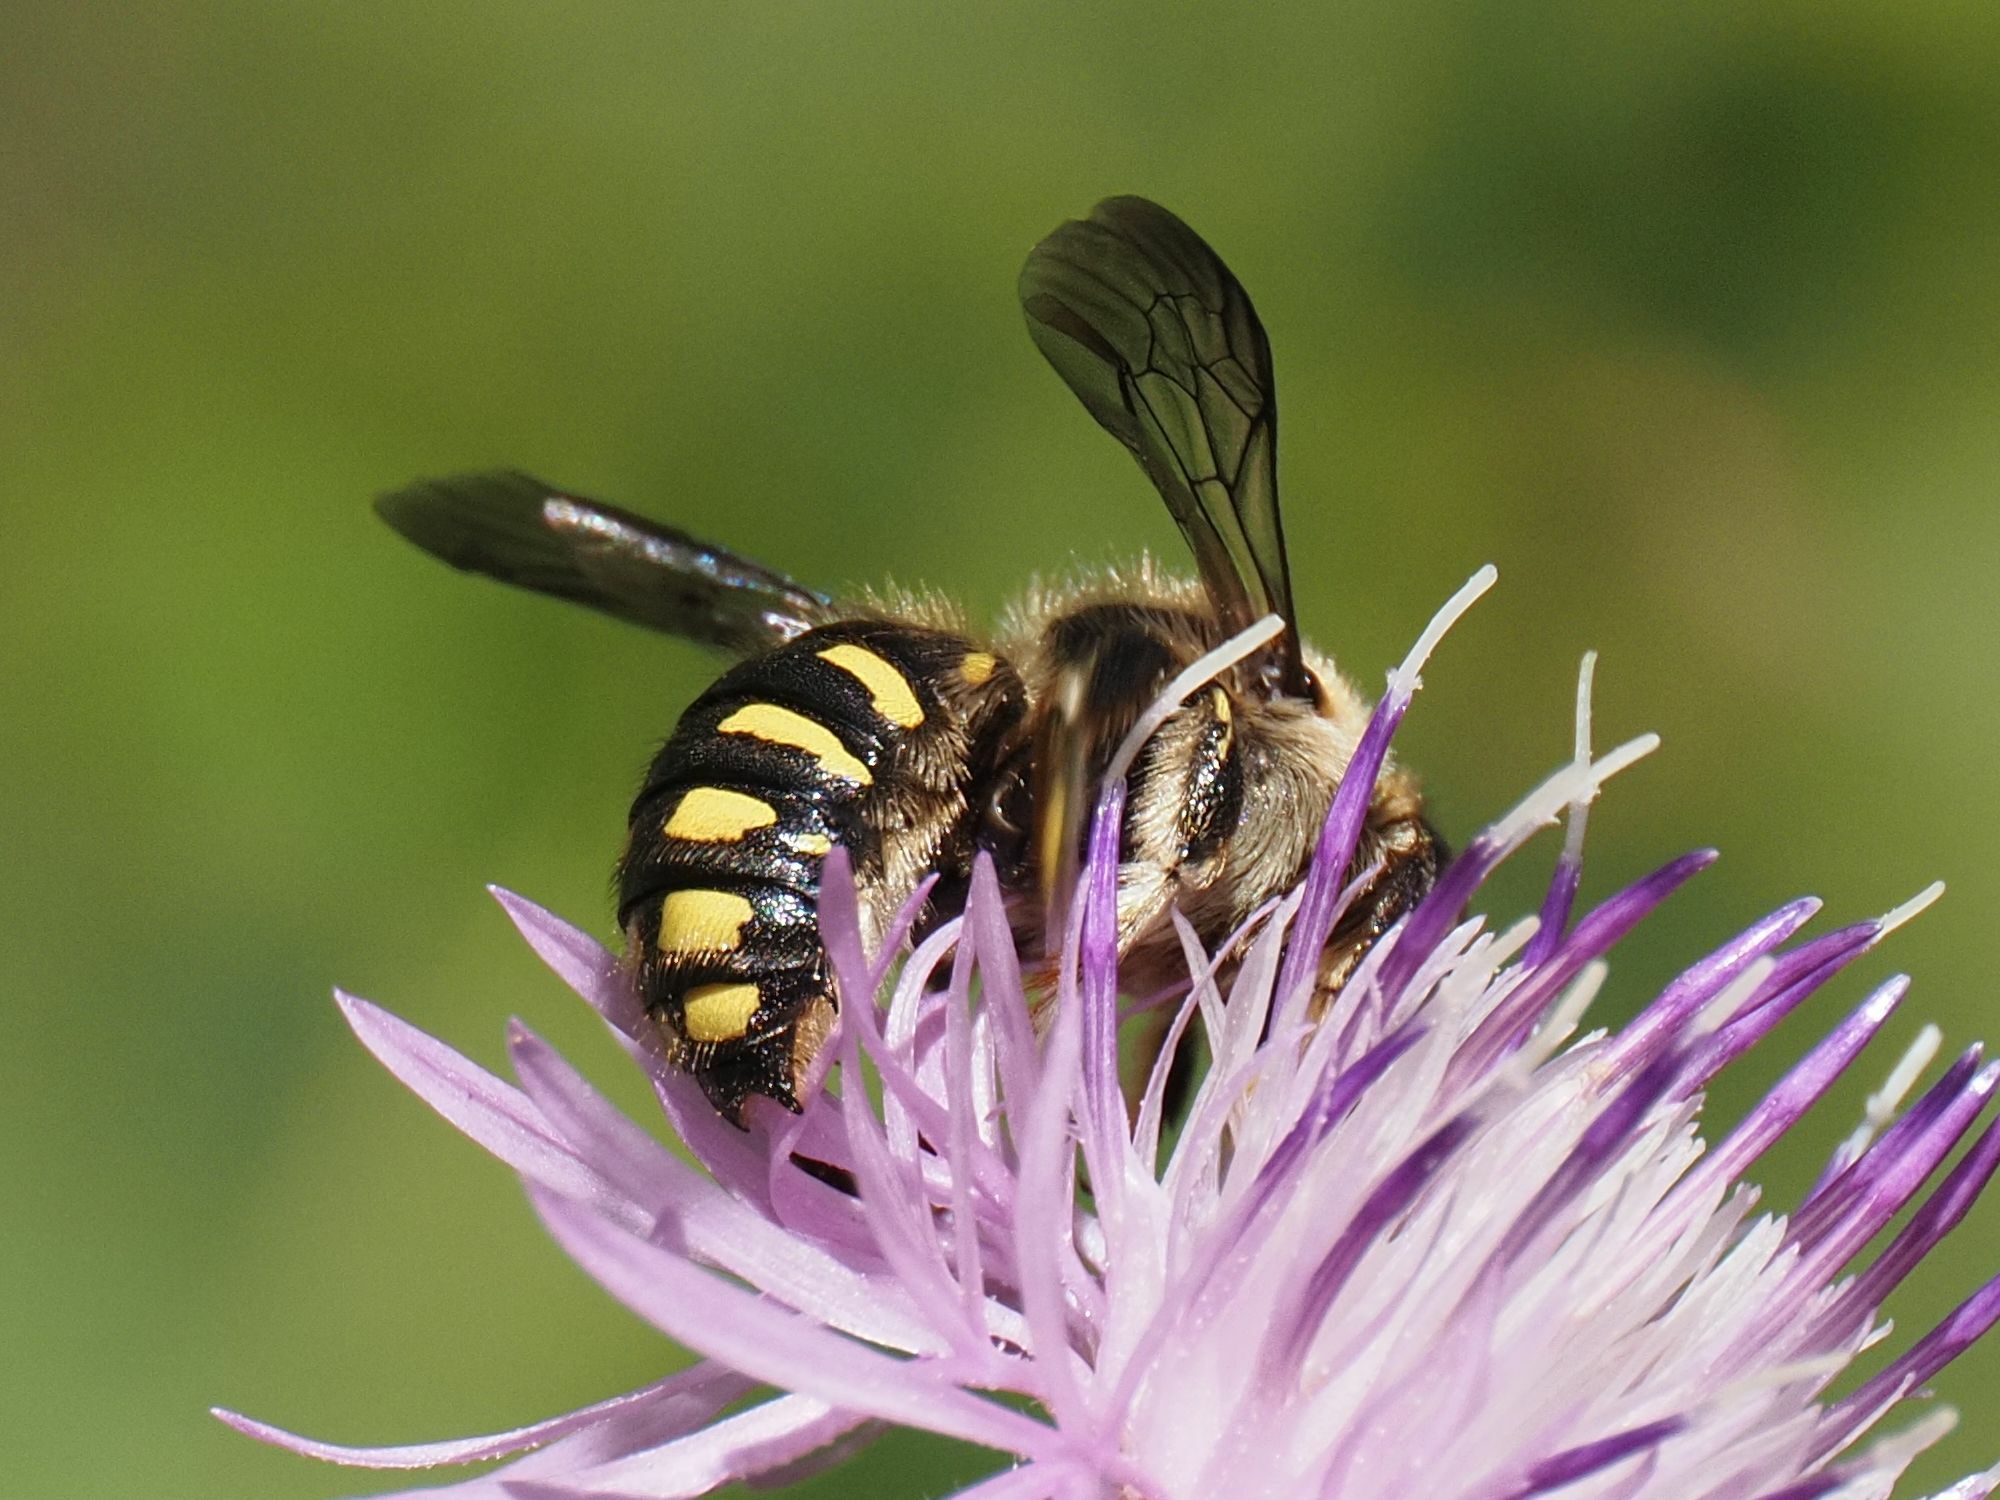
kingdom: Animalia
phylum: Arthropoda
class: Insecta
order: Hymenoptera
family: Megachilidae
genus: Anthidium
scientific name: Anthidium septemspinosum
